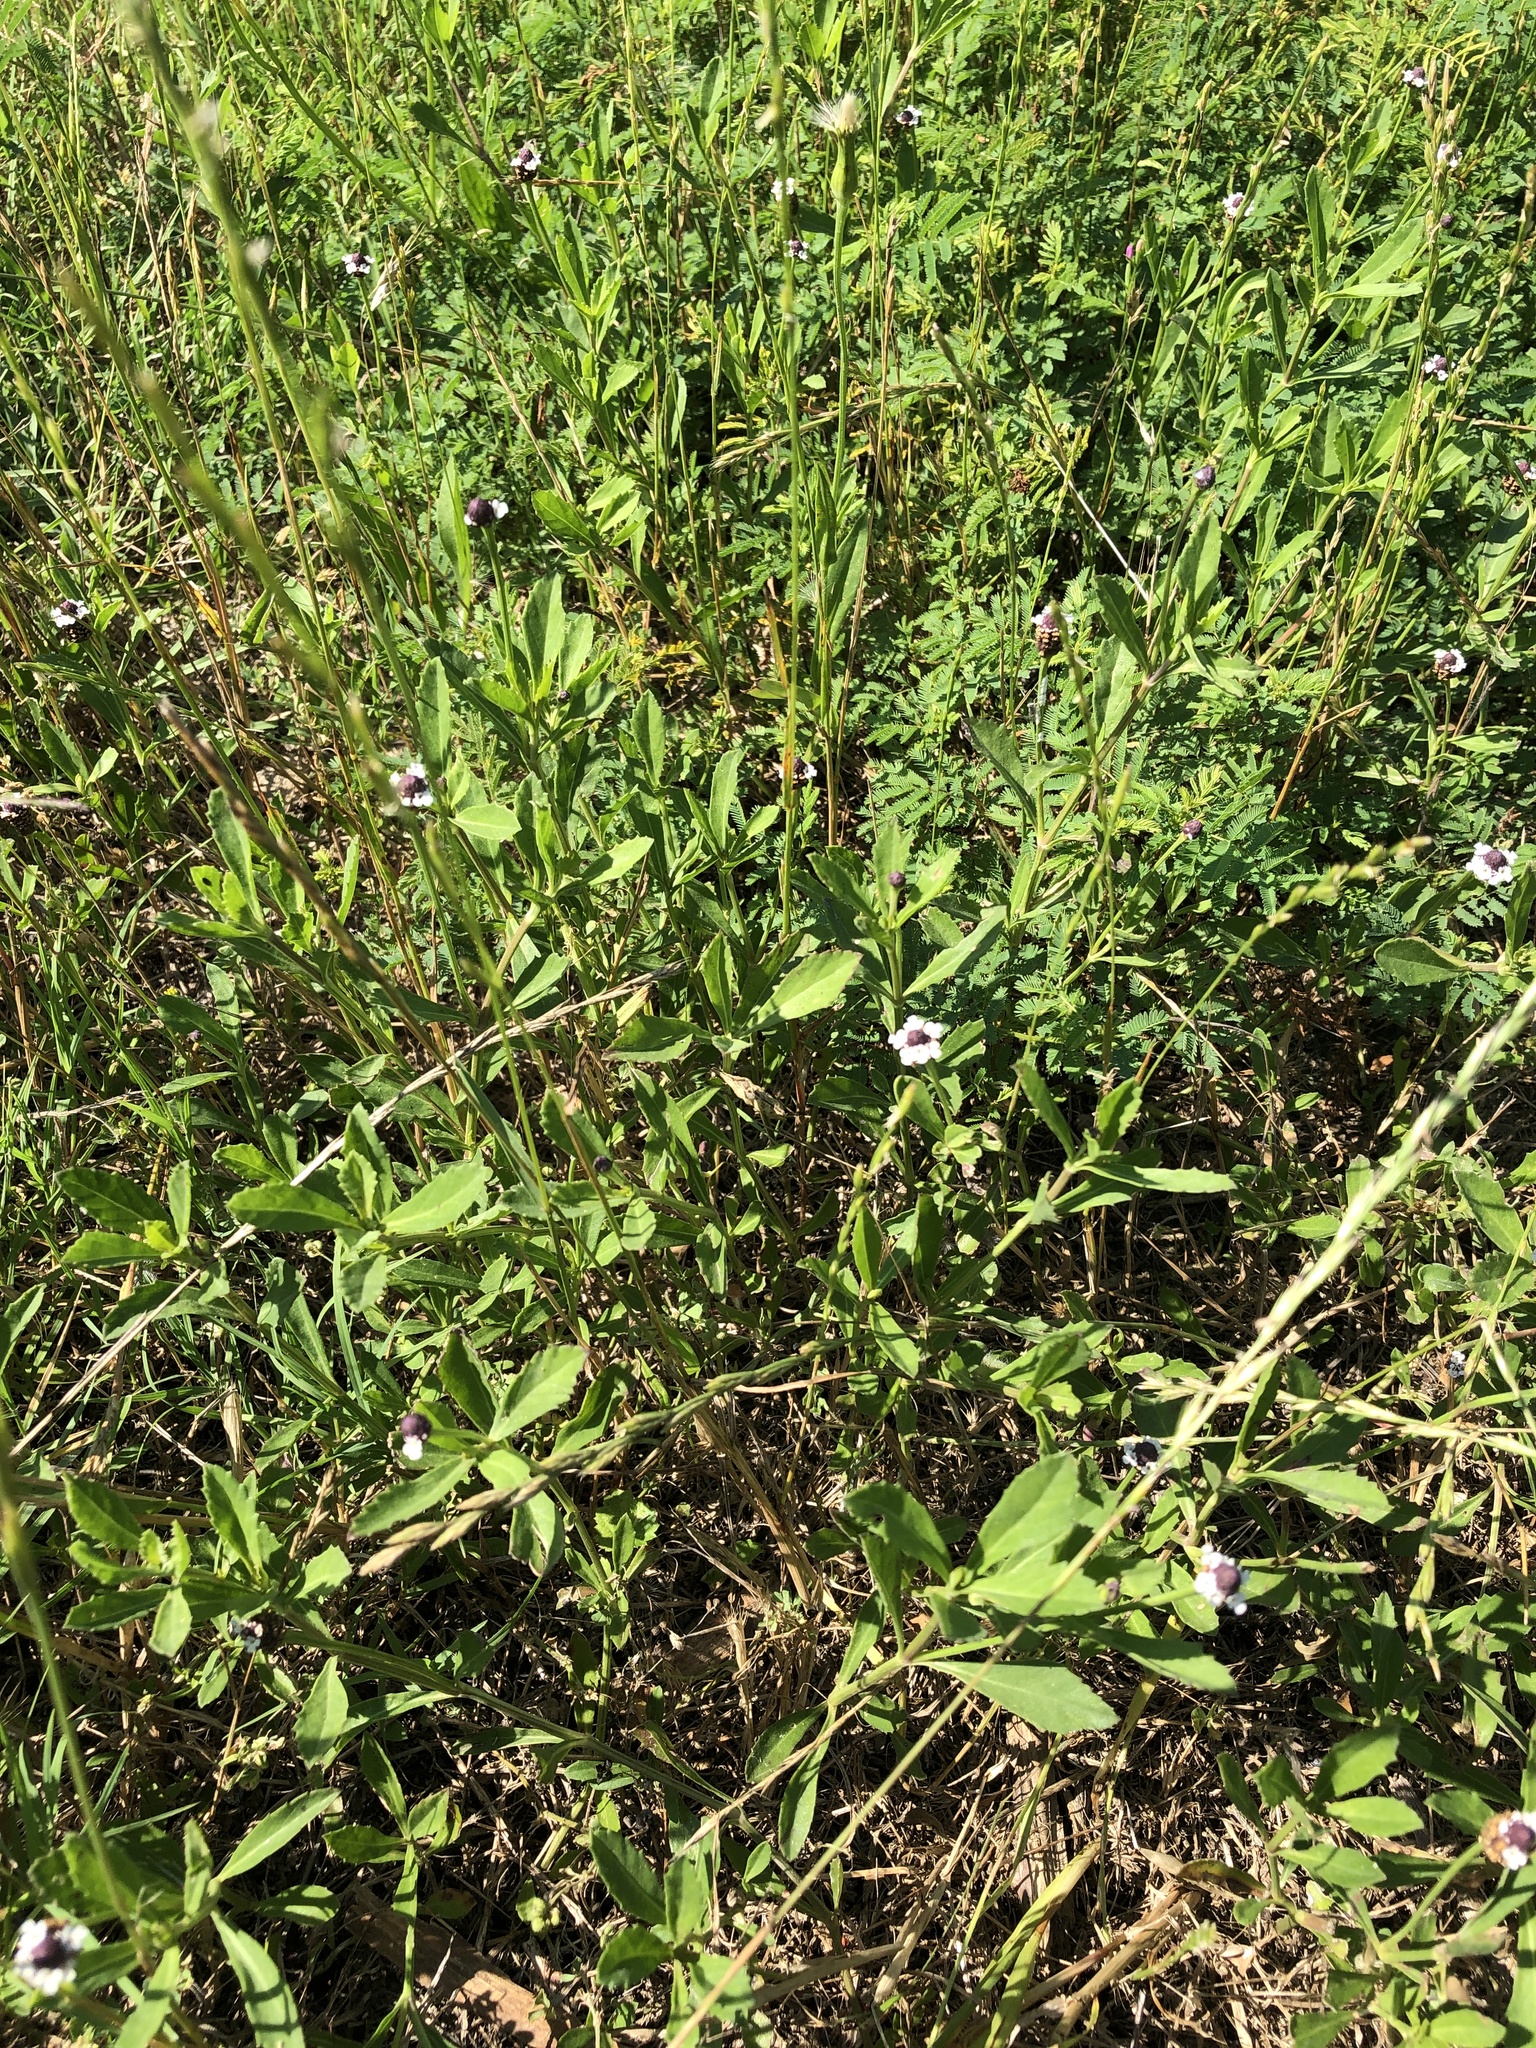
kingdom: Plantae
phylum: Tracheophyta
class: Magnoliopsida
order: Lamiales
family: Verbenaceae
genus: Phyla
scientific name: Phyla nodiflora
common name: Frogfruit
